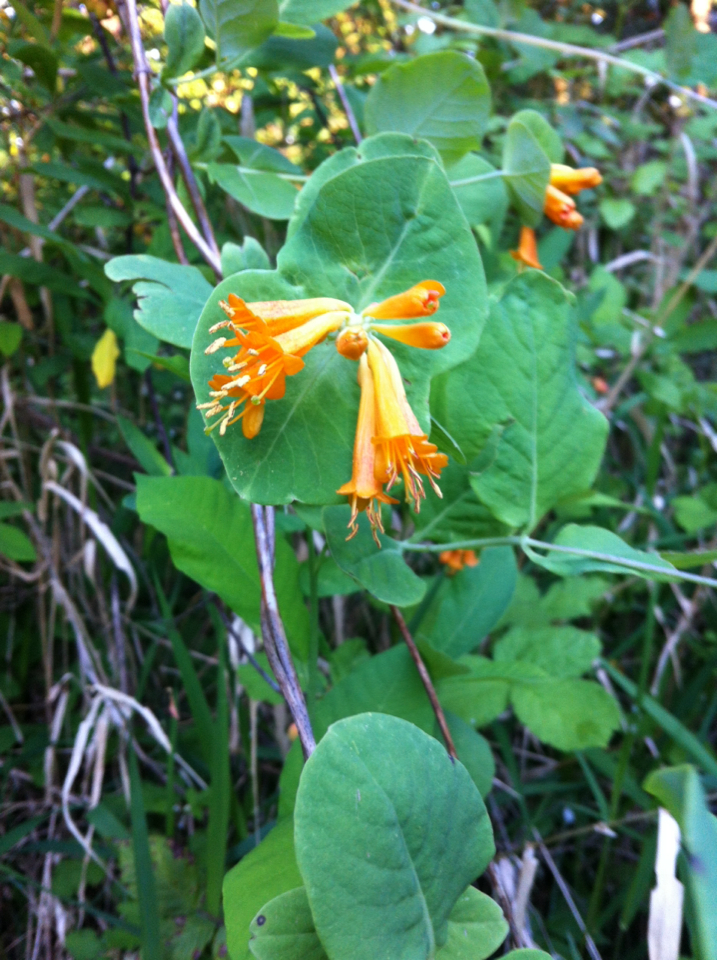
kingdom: Plantae
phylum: Tracheophyta
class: Magnoliopsida
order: Dipsacales
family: Caprifoliaceae
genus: Lonicera
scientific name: Lonicera ciliosa
